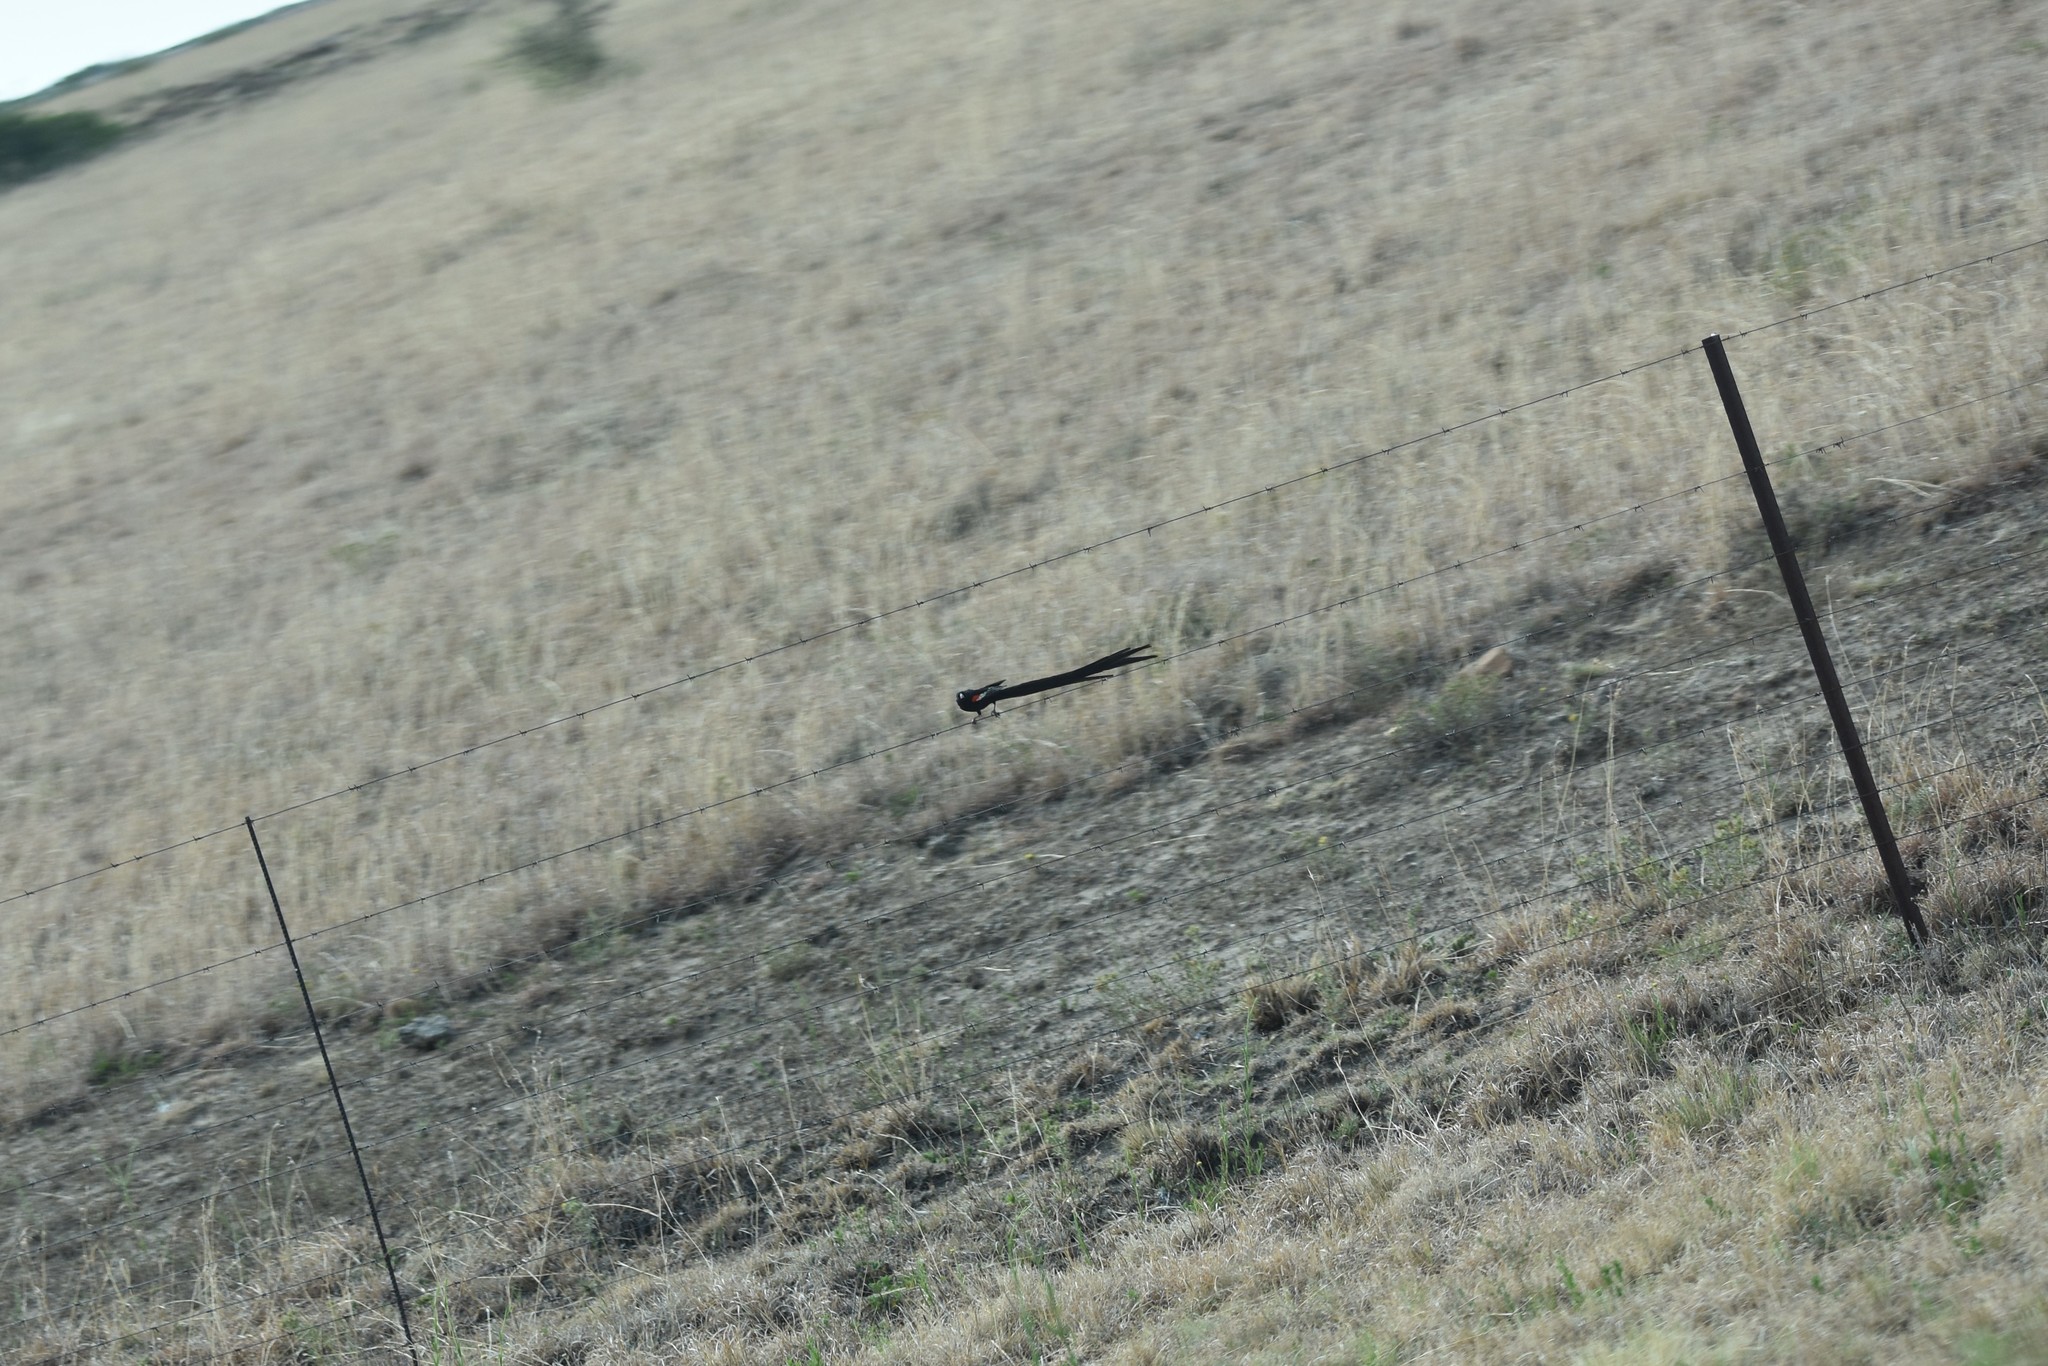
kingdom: Animalia
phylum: Chordata
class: Aves
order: Passeriformes
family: Ploceidae
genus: Euplectes
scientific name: Euplectes progne
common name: Long-tailed widowbird
